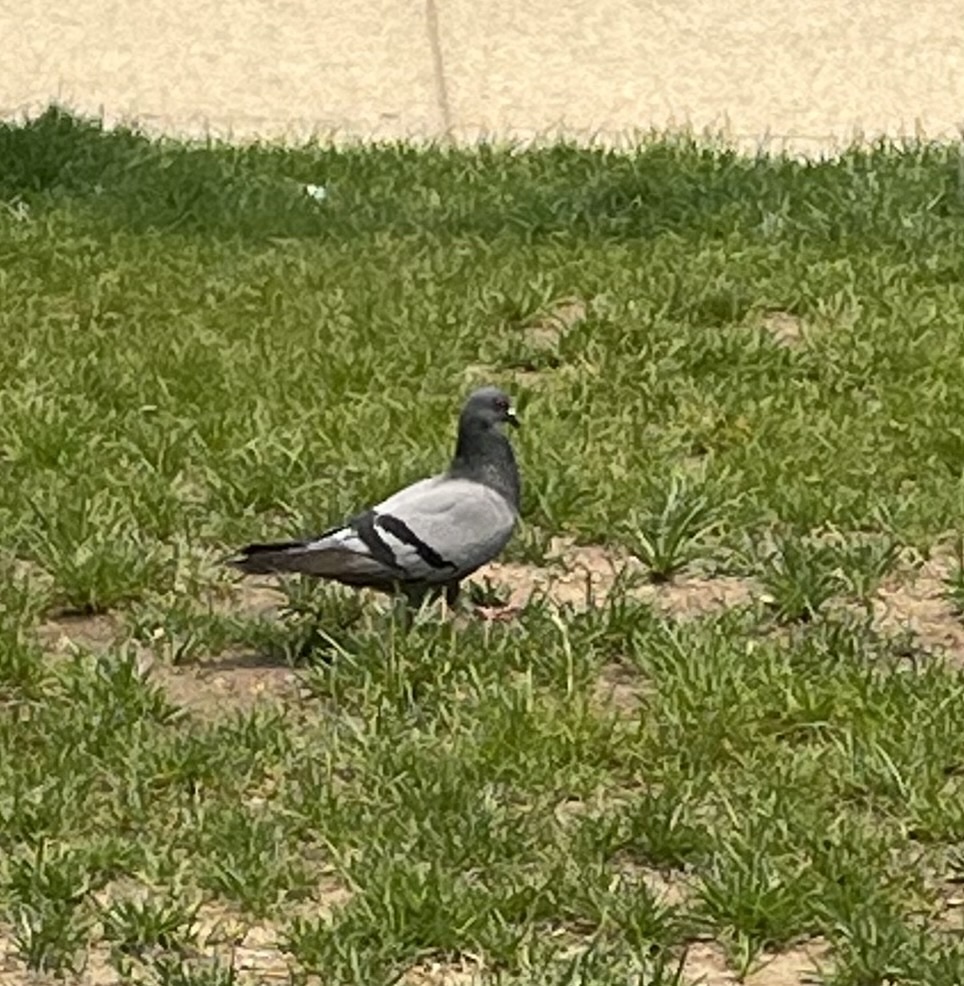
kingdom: Animalia
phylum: Chordata
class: Aves
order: Columbiformes
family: Columbidae
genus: Columba
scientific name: Columba livia
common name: Rock pigeon
